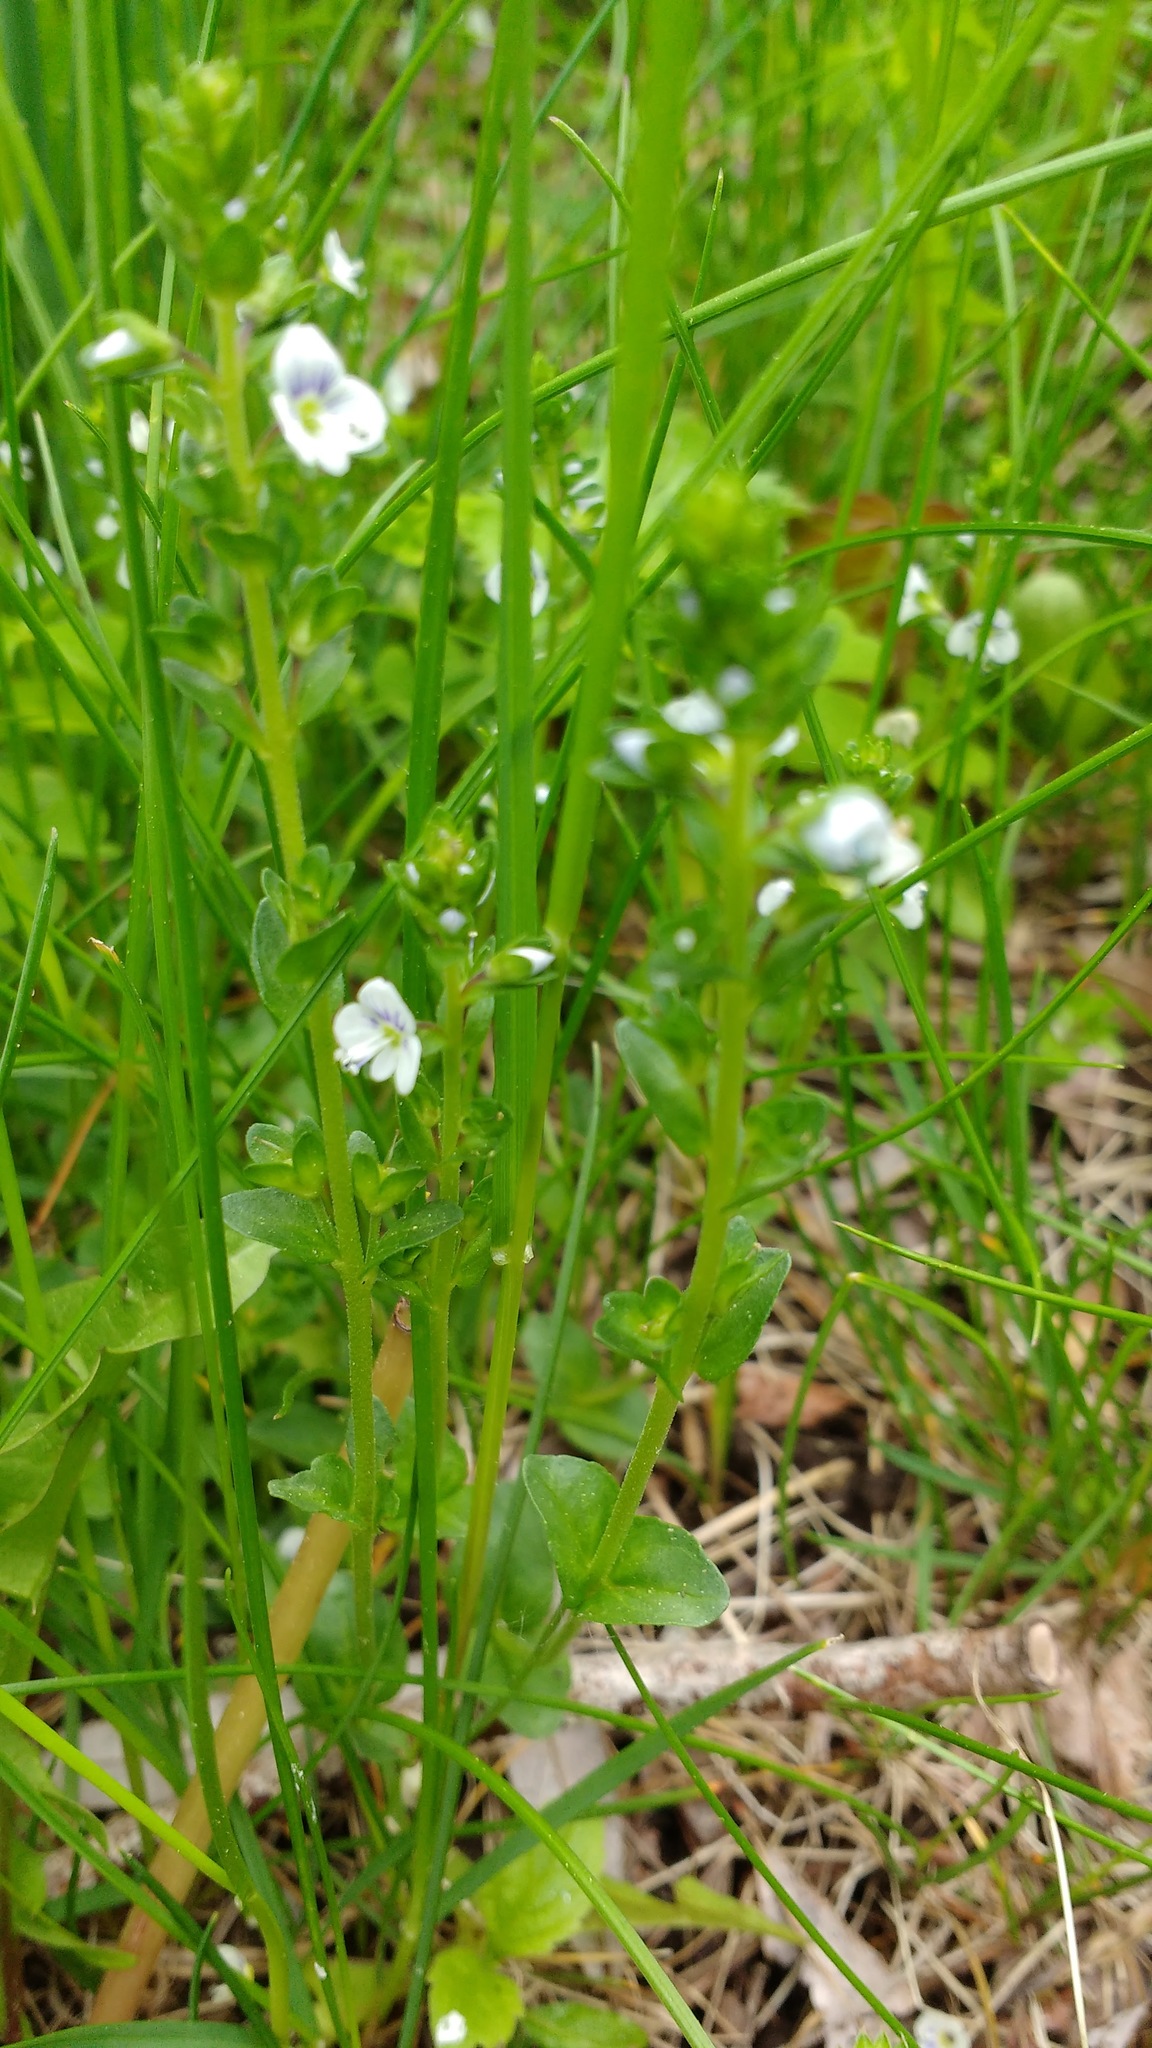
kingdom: Plantae
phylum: Tracheophyta
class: Magnoliopsida
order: Lamiales
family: Plantaginaceae
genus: Veronica
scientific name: Veronica serpyllifolia
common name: Thyme-leaved speedwell
